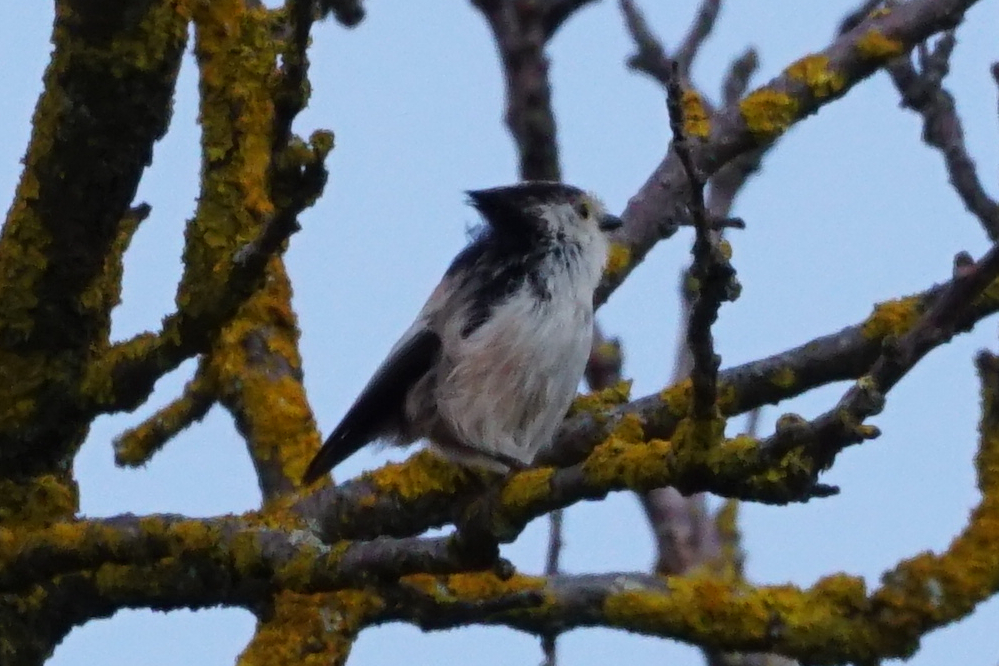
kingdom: Animalia
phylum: Chordata
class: Aves
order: Passeriformes
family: Aegithalidae
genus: Aegithalos
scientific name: Aegithalos caudatus
